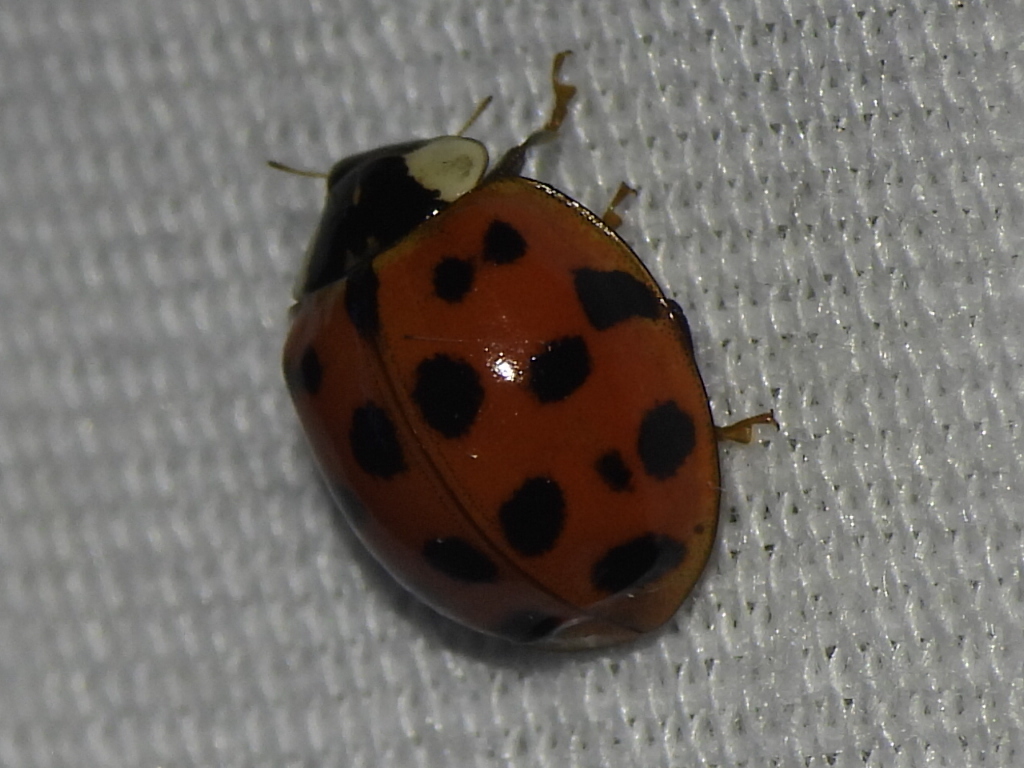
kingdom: Animalia
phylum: Arthropoda
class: Insecta
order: Coleoptera
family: Coccinellidae
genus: Harmonia
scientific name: Harmonia axyridis
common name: Harlequin ladybird
